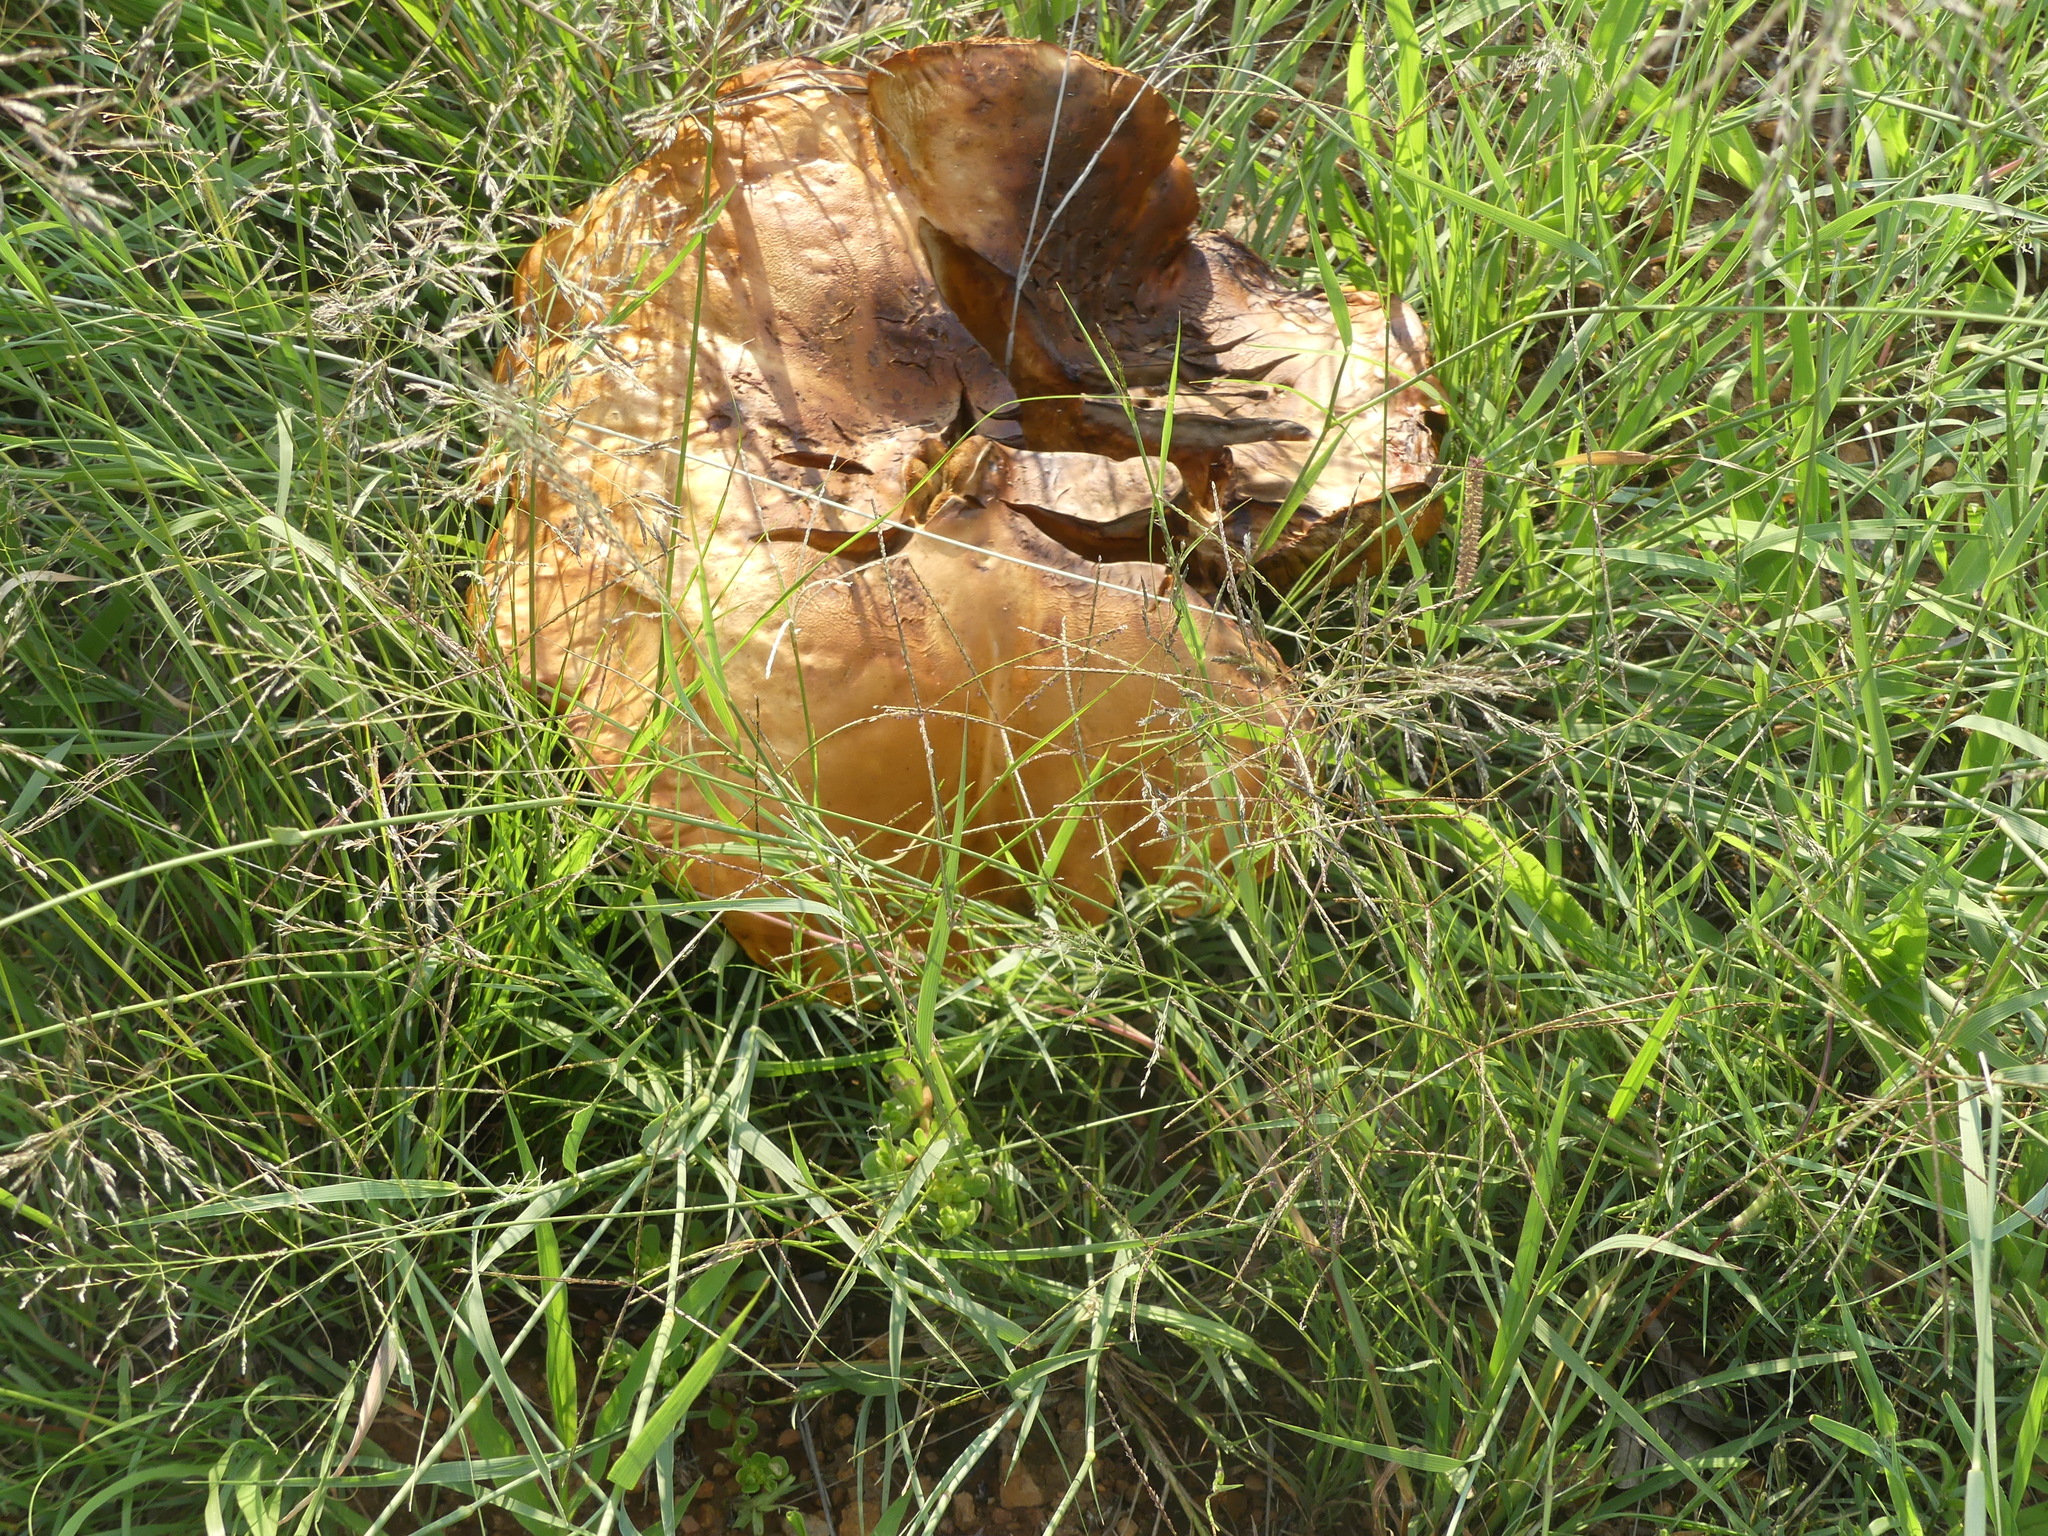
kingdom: Fungi
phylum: Basidiomycota
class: Agaricomycetes
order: Boletales
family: Boletinellaceae
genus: Phlebopus
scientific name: Phlebopus sudanicus
